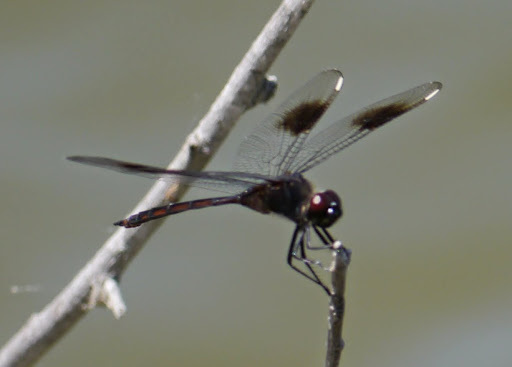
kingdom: Animalia
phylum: Arthropoda
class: Insecta
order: Odonata
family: Libellulidae
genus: Brachymesia
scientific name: Brachymesia gravida
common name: Four-spotted pennant
